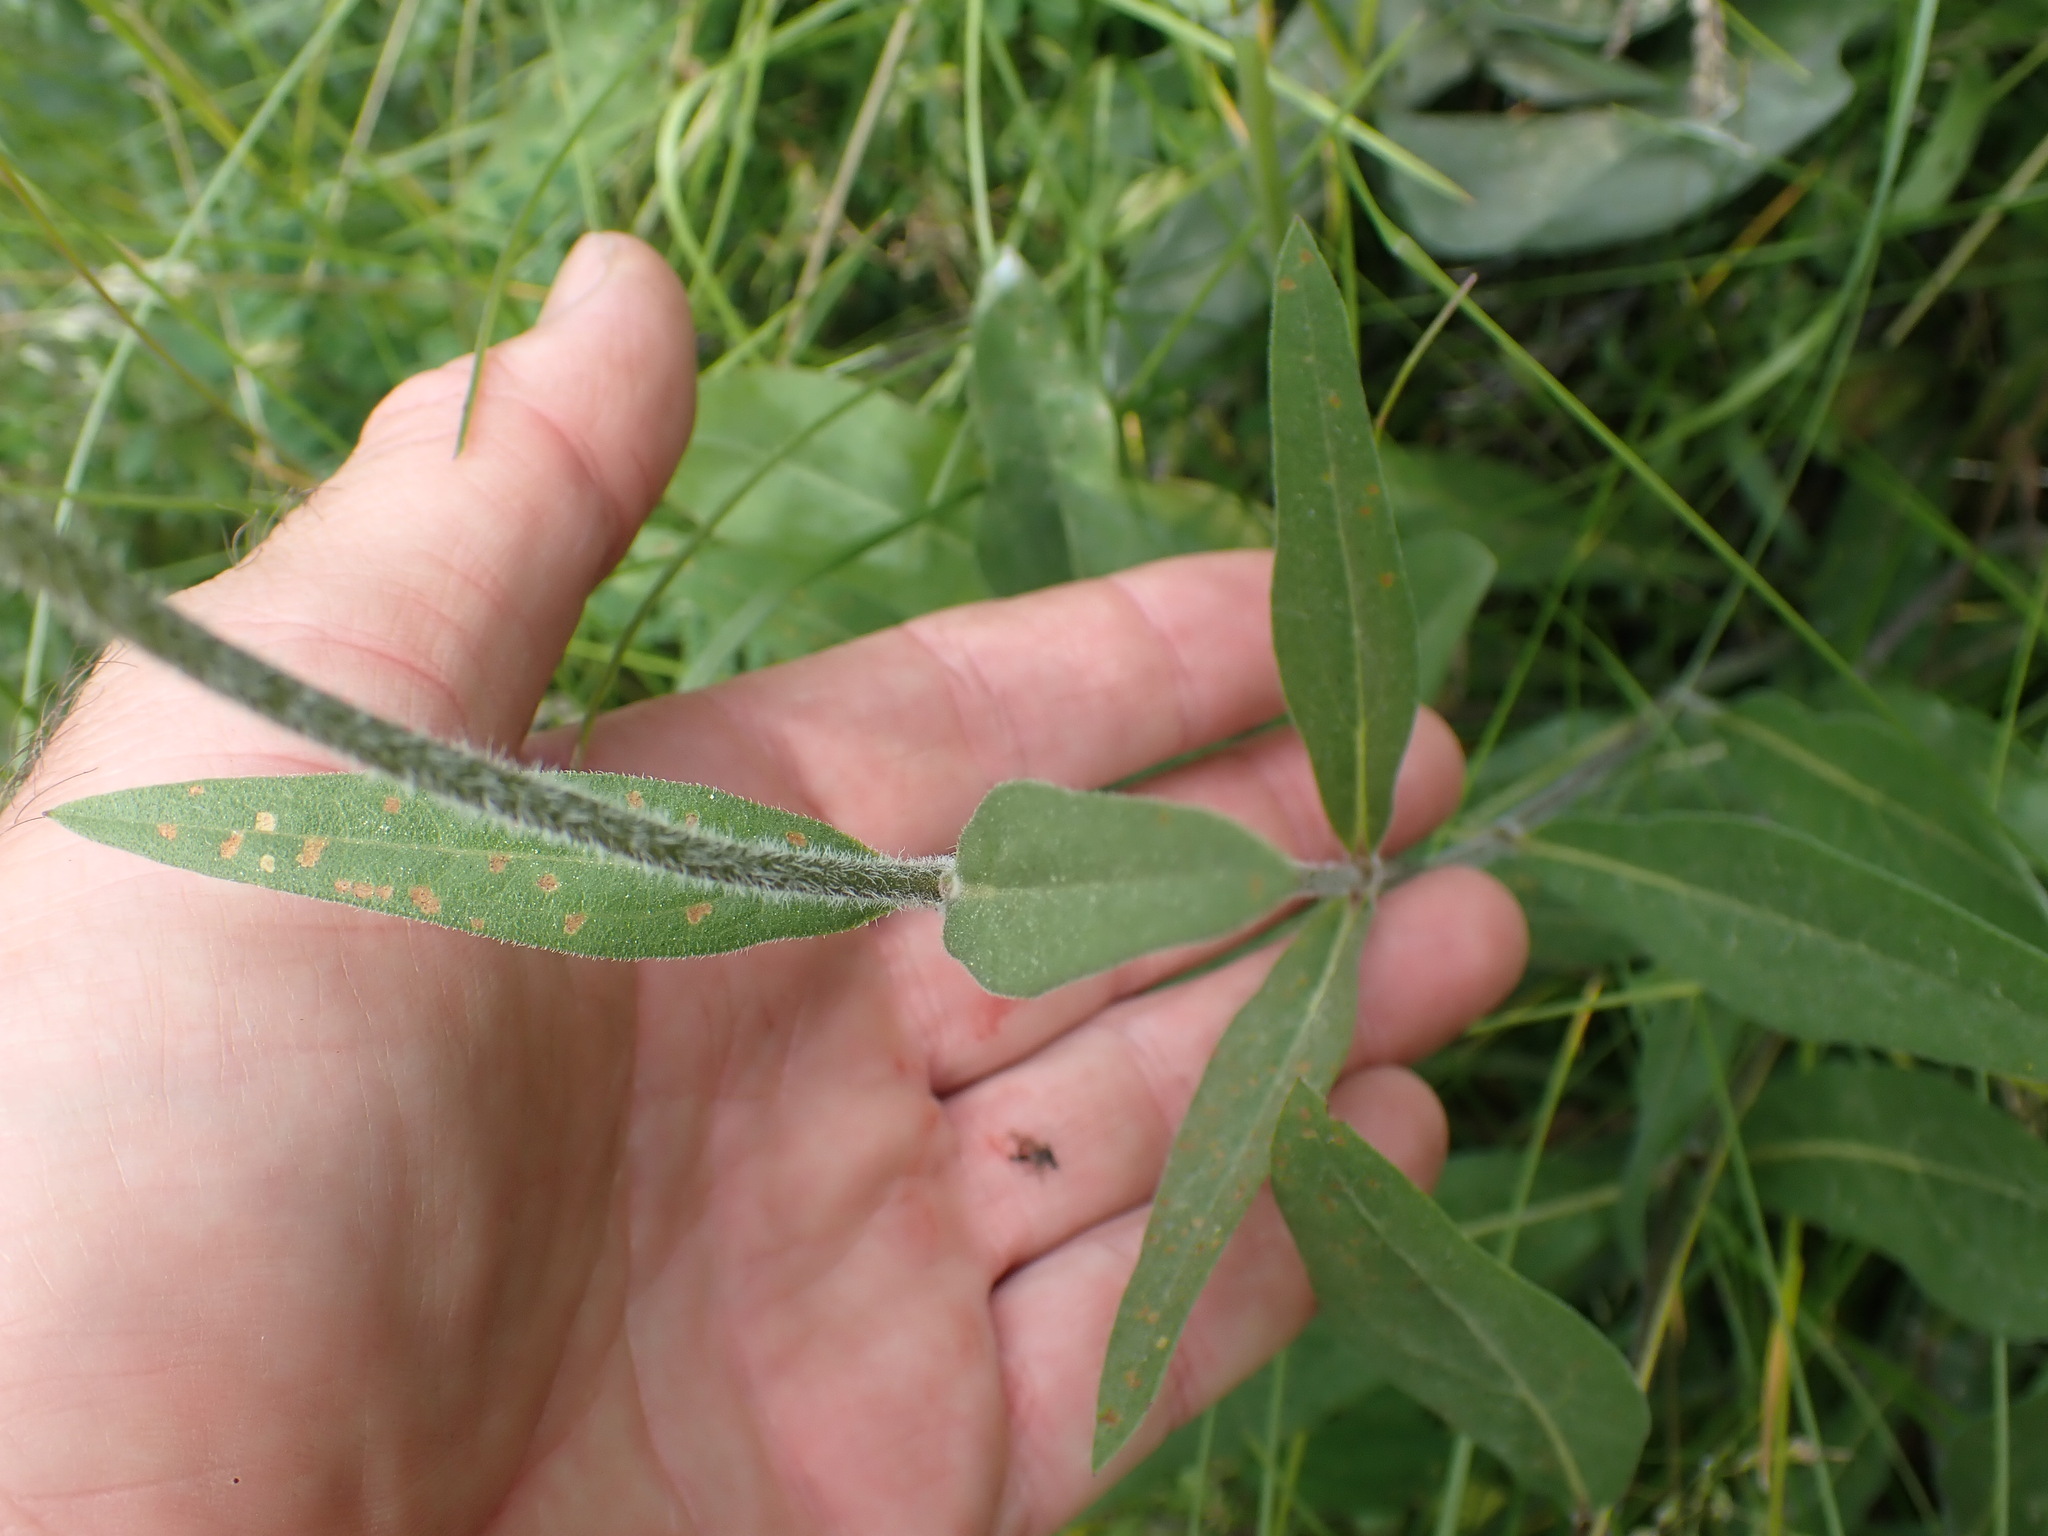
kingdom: Plantae
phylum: Tracheophyta
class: Magnoliopsida
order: Asterales
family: Asteraceae
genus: Helianthella
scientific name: Helianthella uniflora
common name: Rocky mountain dwarf sunflower
